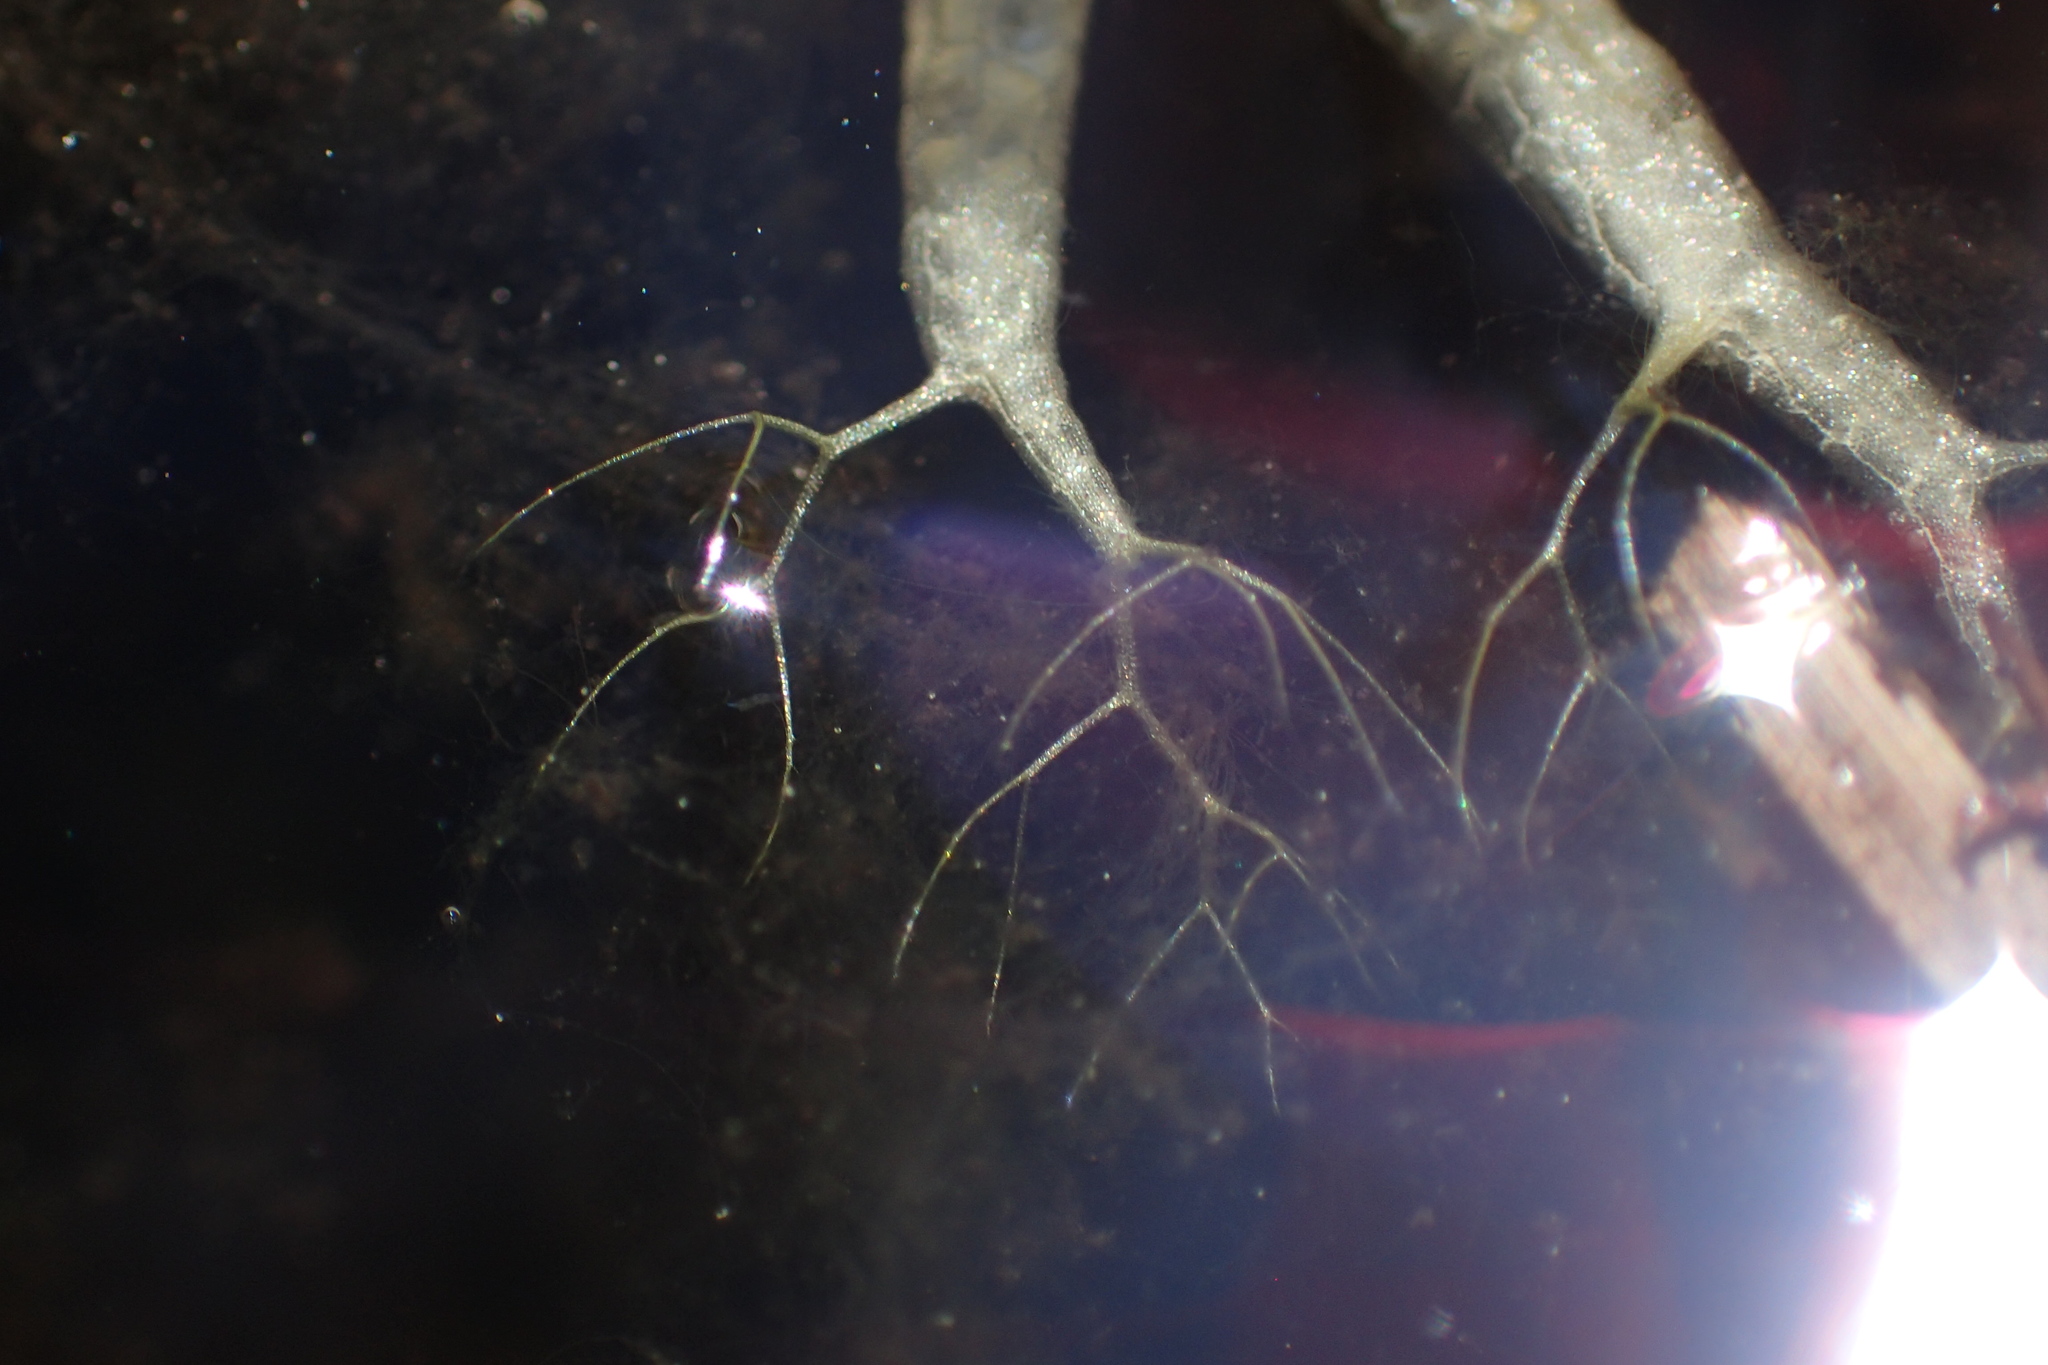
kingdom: Plantae
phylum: Tracheophyta
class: Magnoliopsida
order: Lamiales
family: Lentibulariaceae
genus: Utricularia
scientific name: Utricularia radiata
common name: Floating bladderwort
